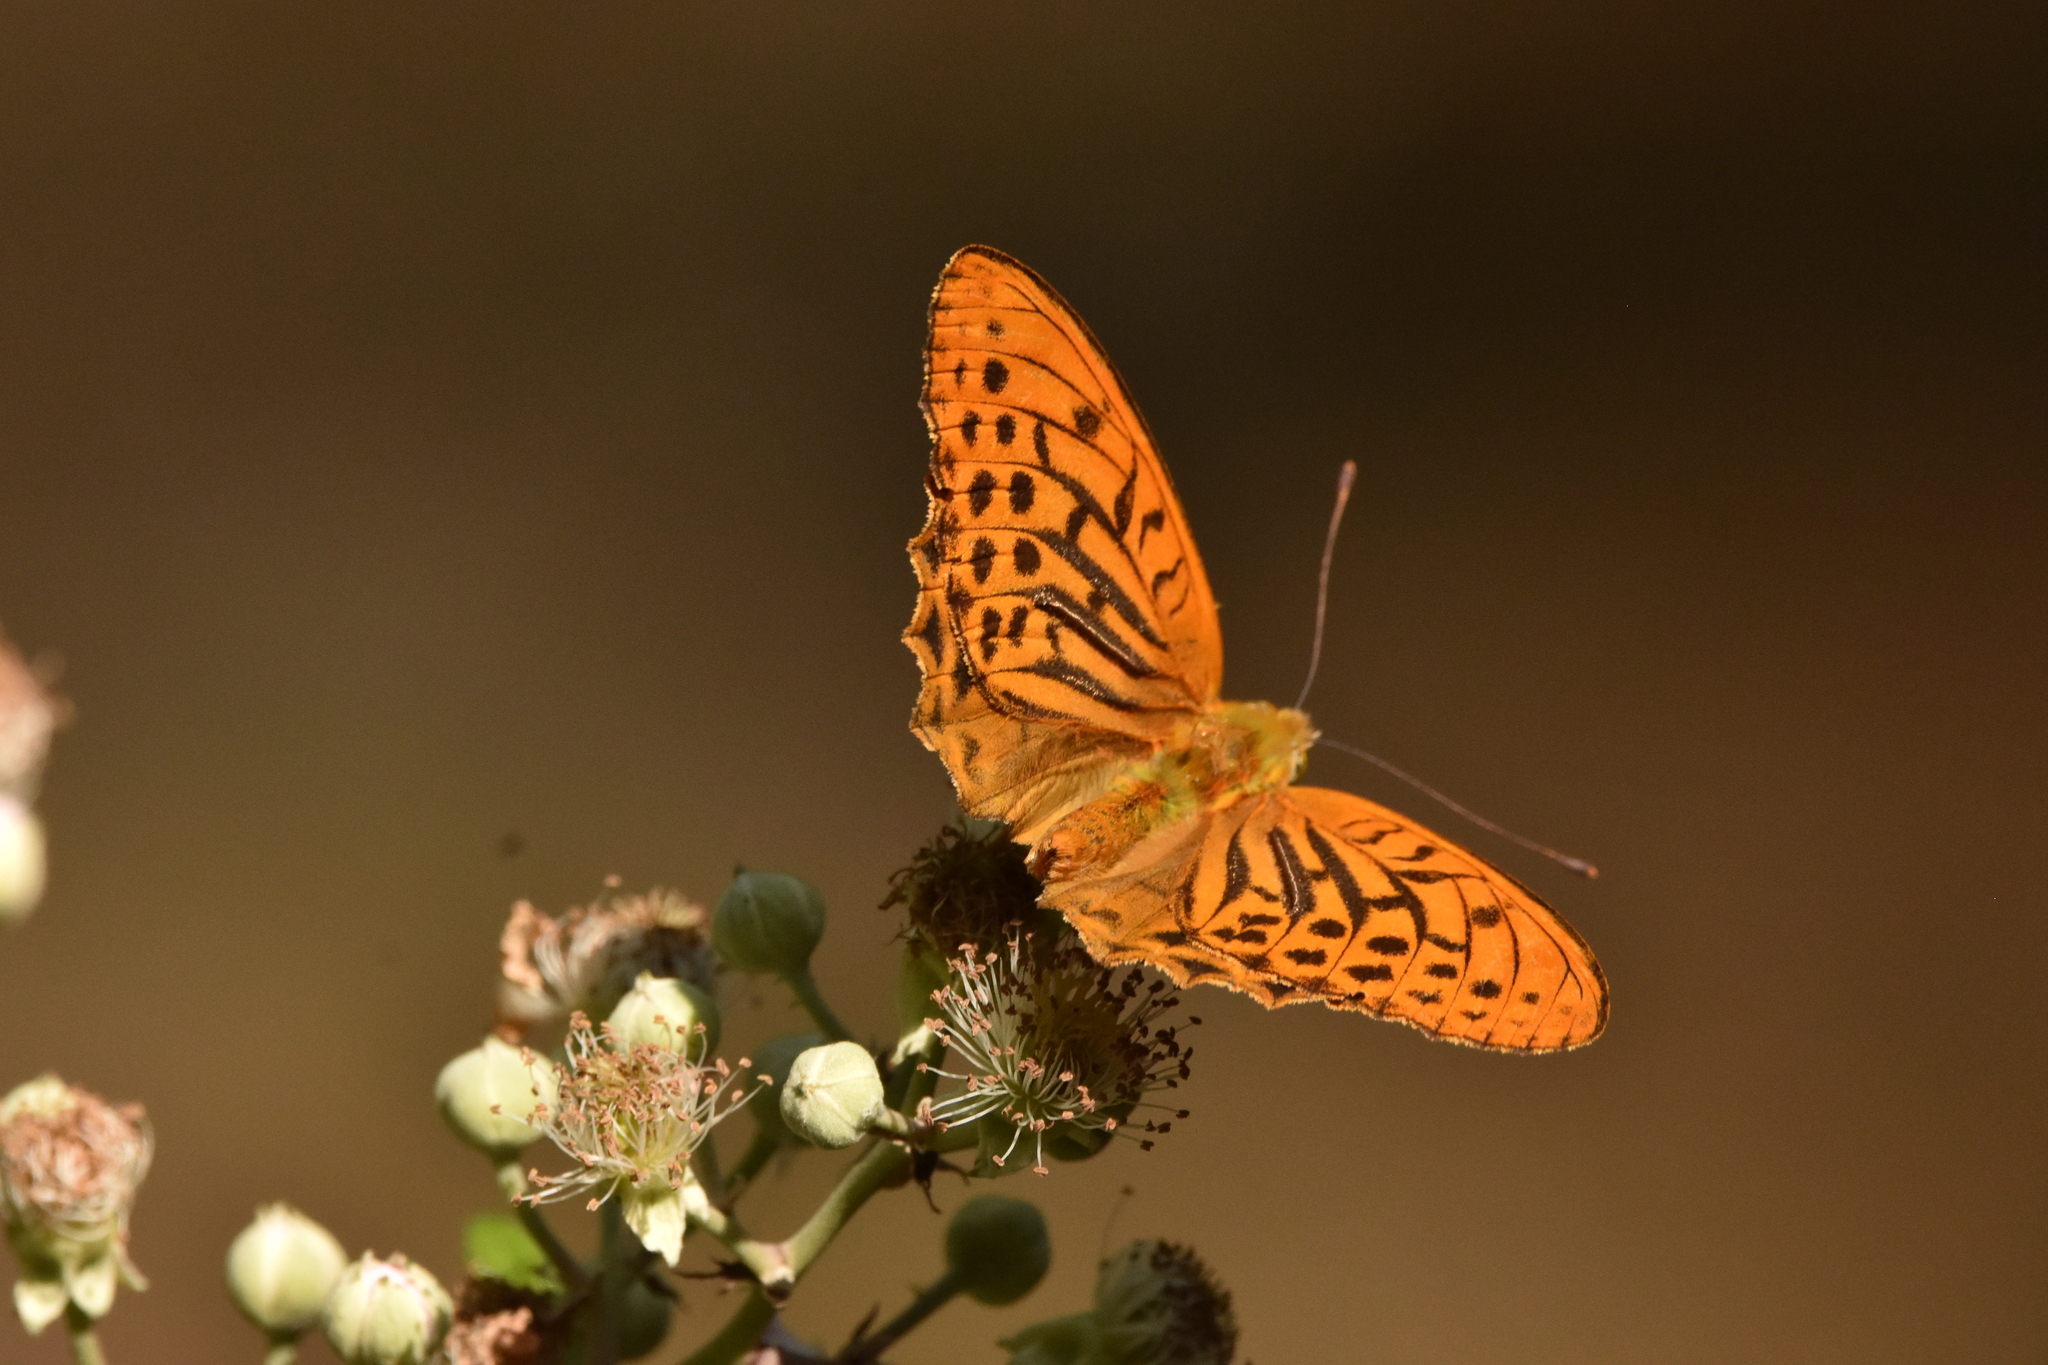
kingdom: Animalia
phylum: Arthropoda
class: Insecta
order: Lepidoptera
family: Nymphalidae
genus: Argynnis
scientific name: Argynnis paphia
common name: Silver-washed fritillary
